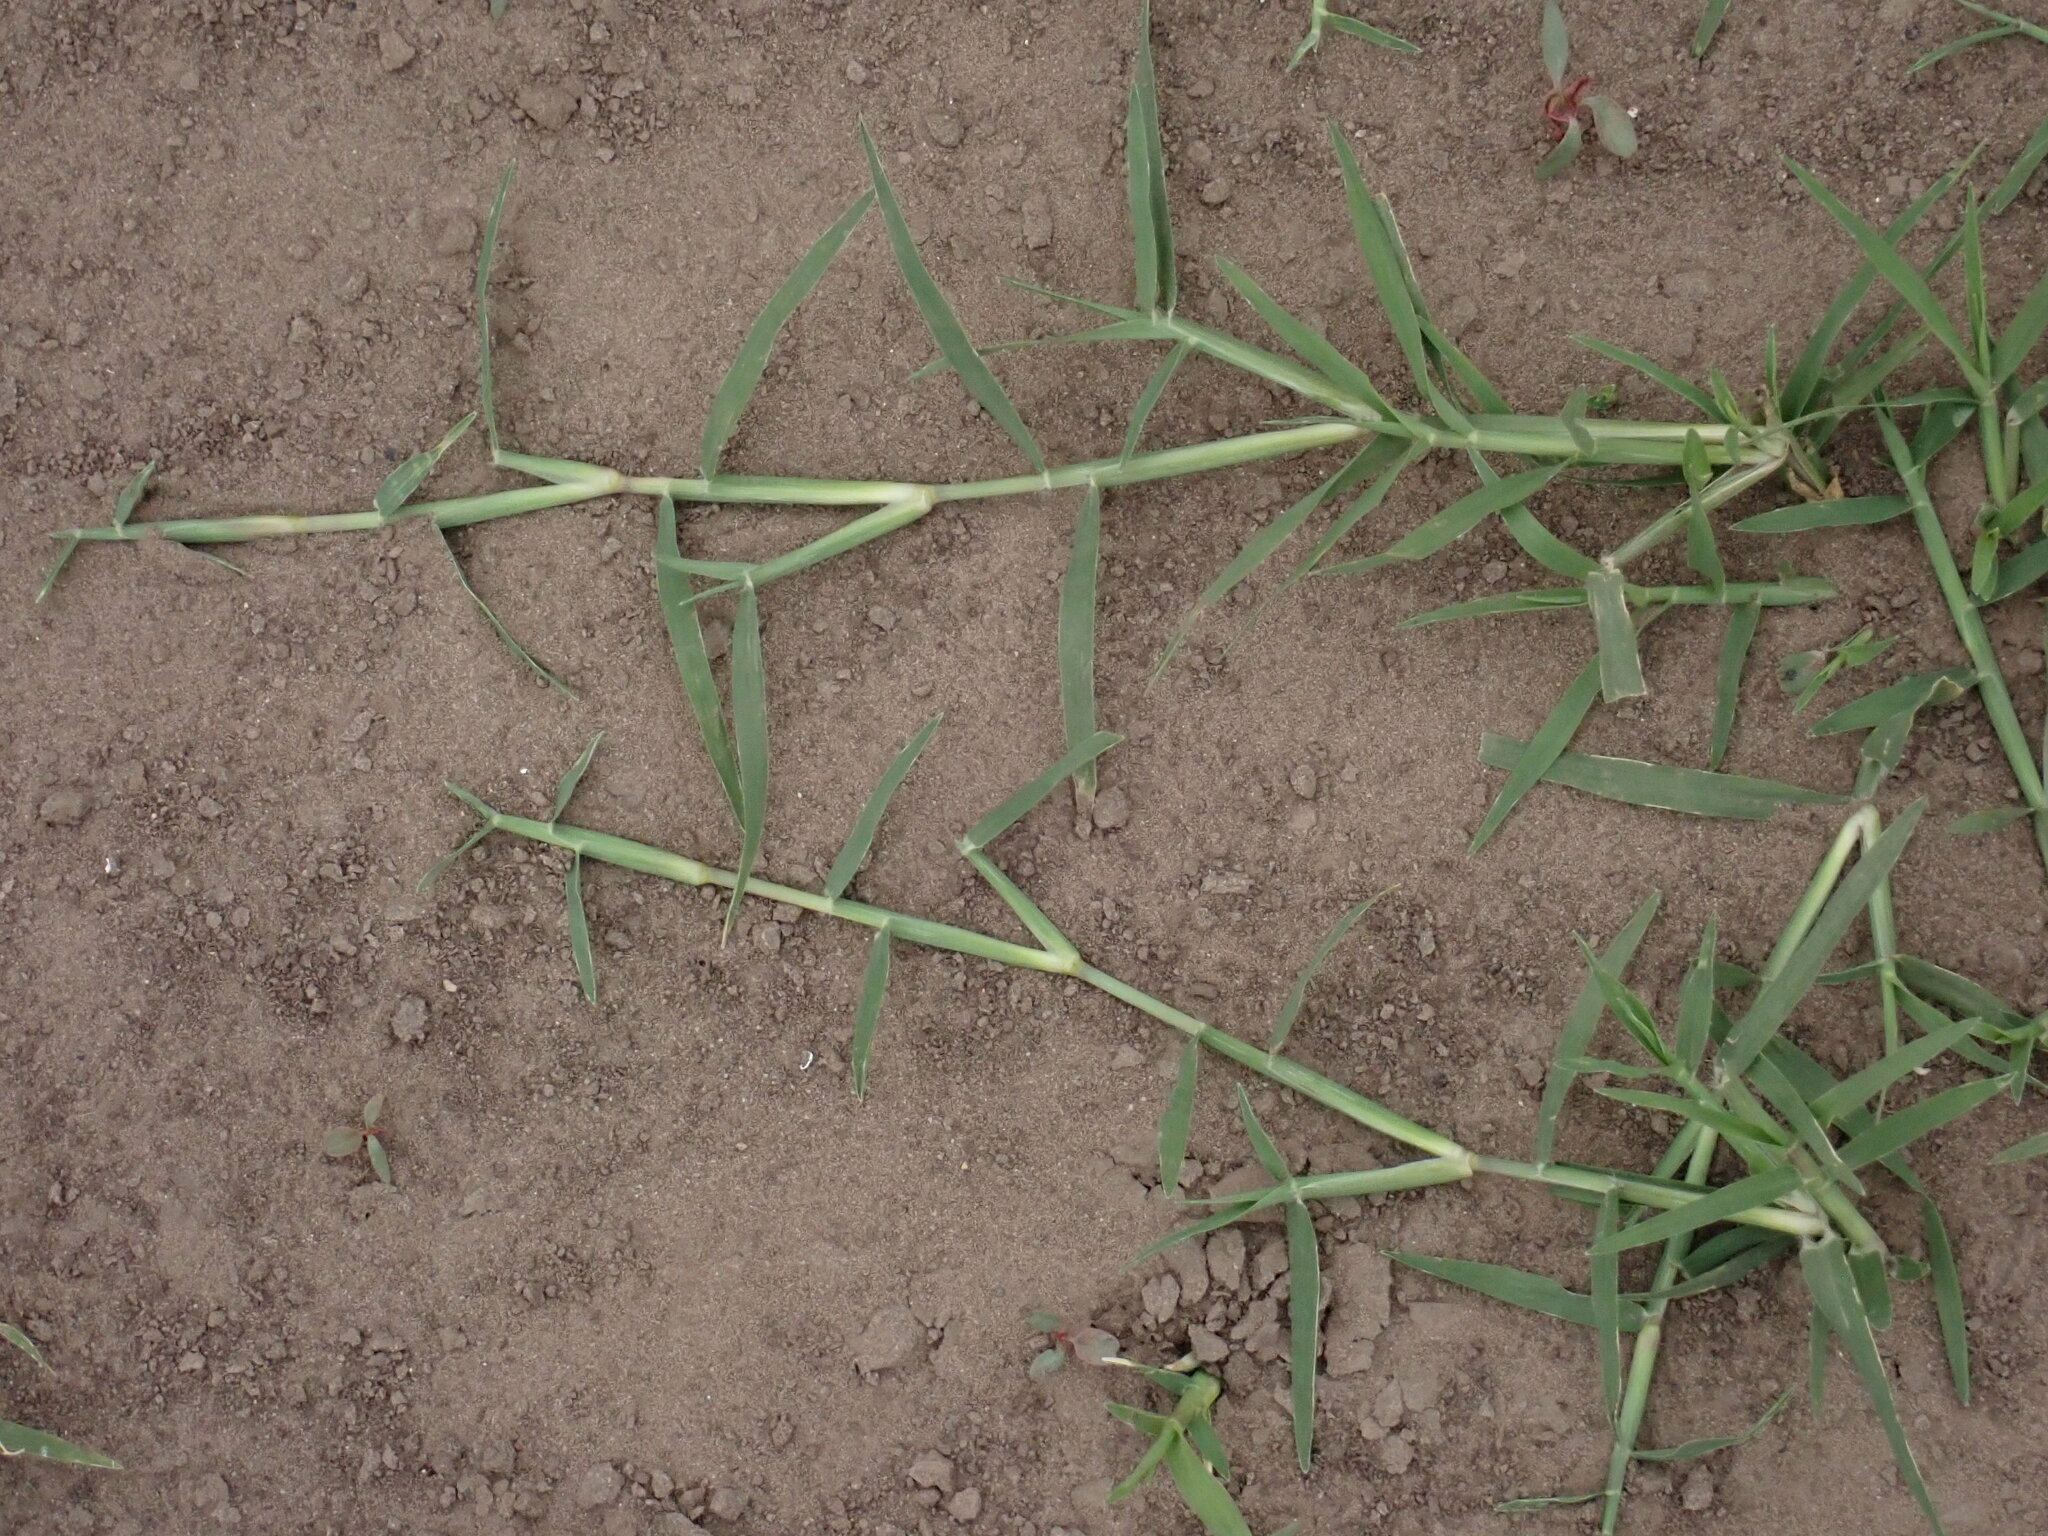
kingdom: Plantae
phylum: Tracheophyta
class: Liliopsida
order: Poales
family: Poaceae
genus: Cynodon
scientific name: Cynodon dactylon
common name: Bermuda grass
